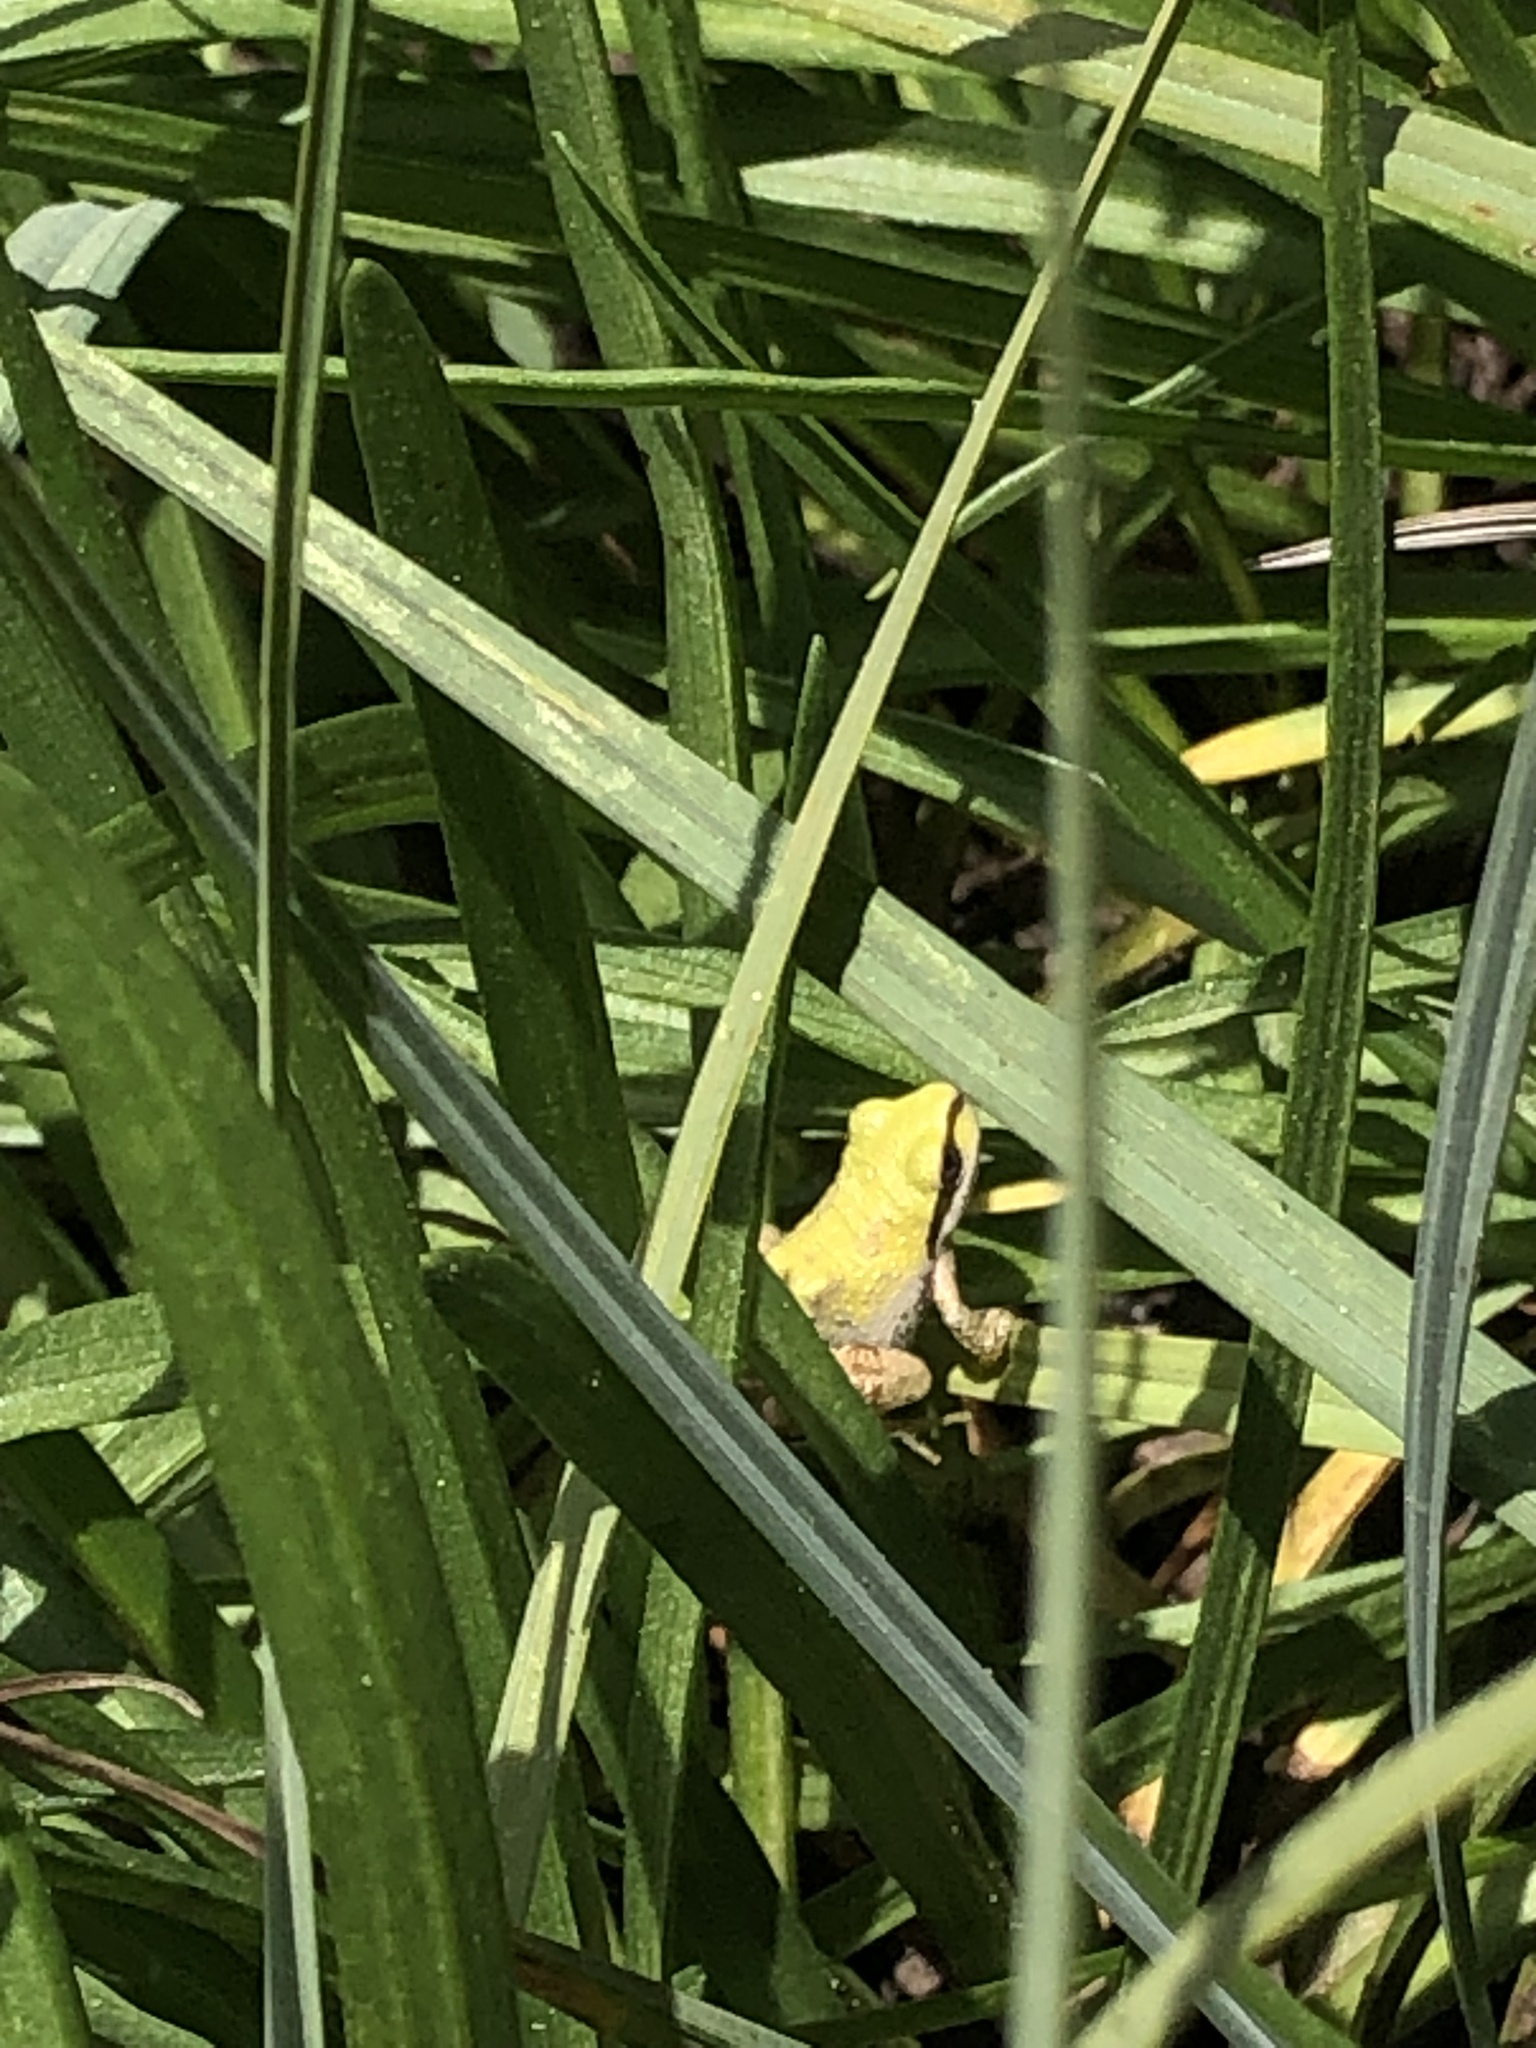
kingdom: Animalia
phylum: Chordata
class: Amphibia
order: Anura
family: Hylidae
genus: Pseudacris
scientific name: Pseudacris regilla
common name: Pacific chorus frog
